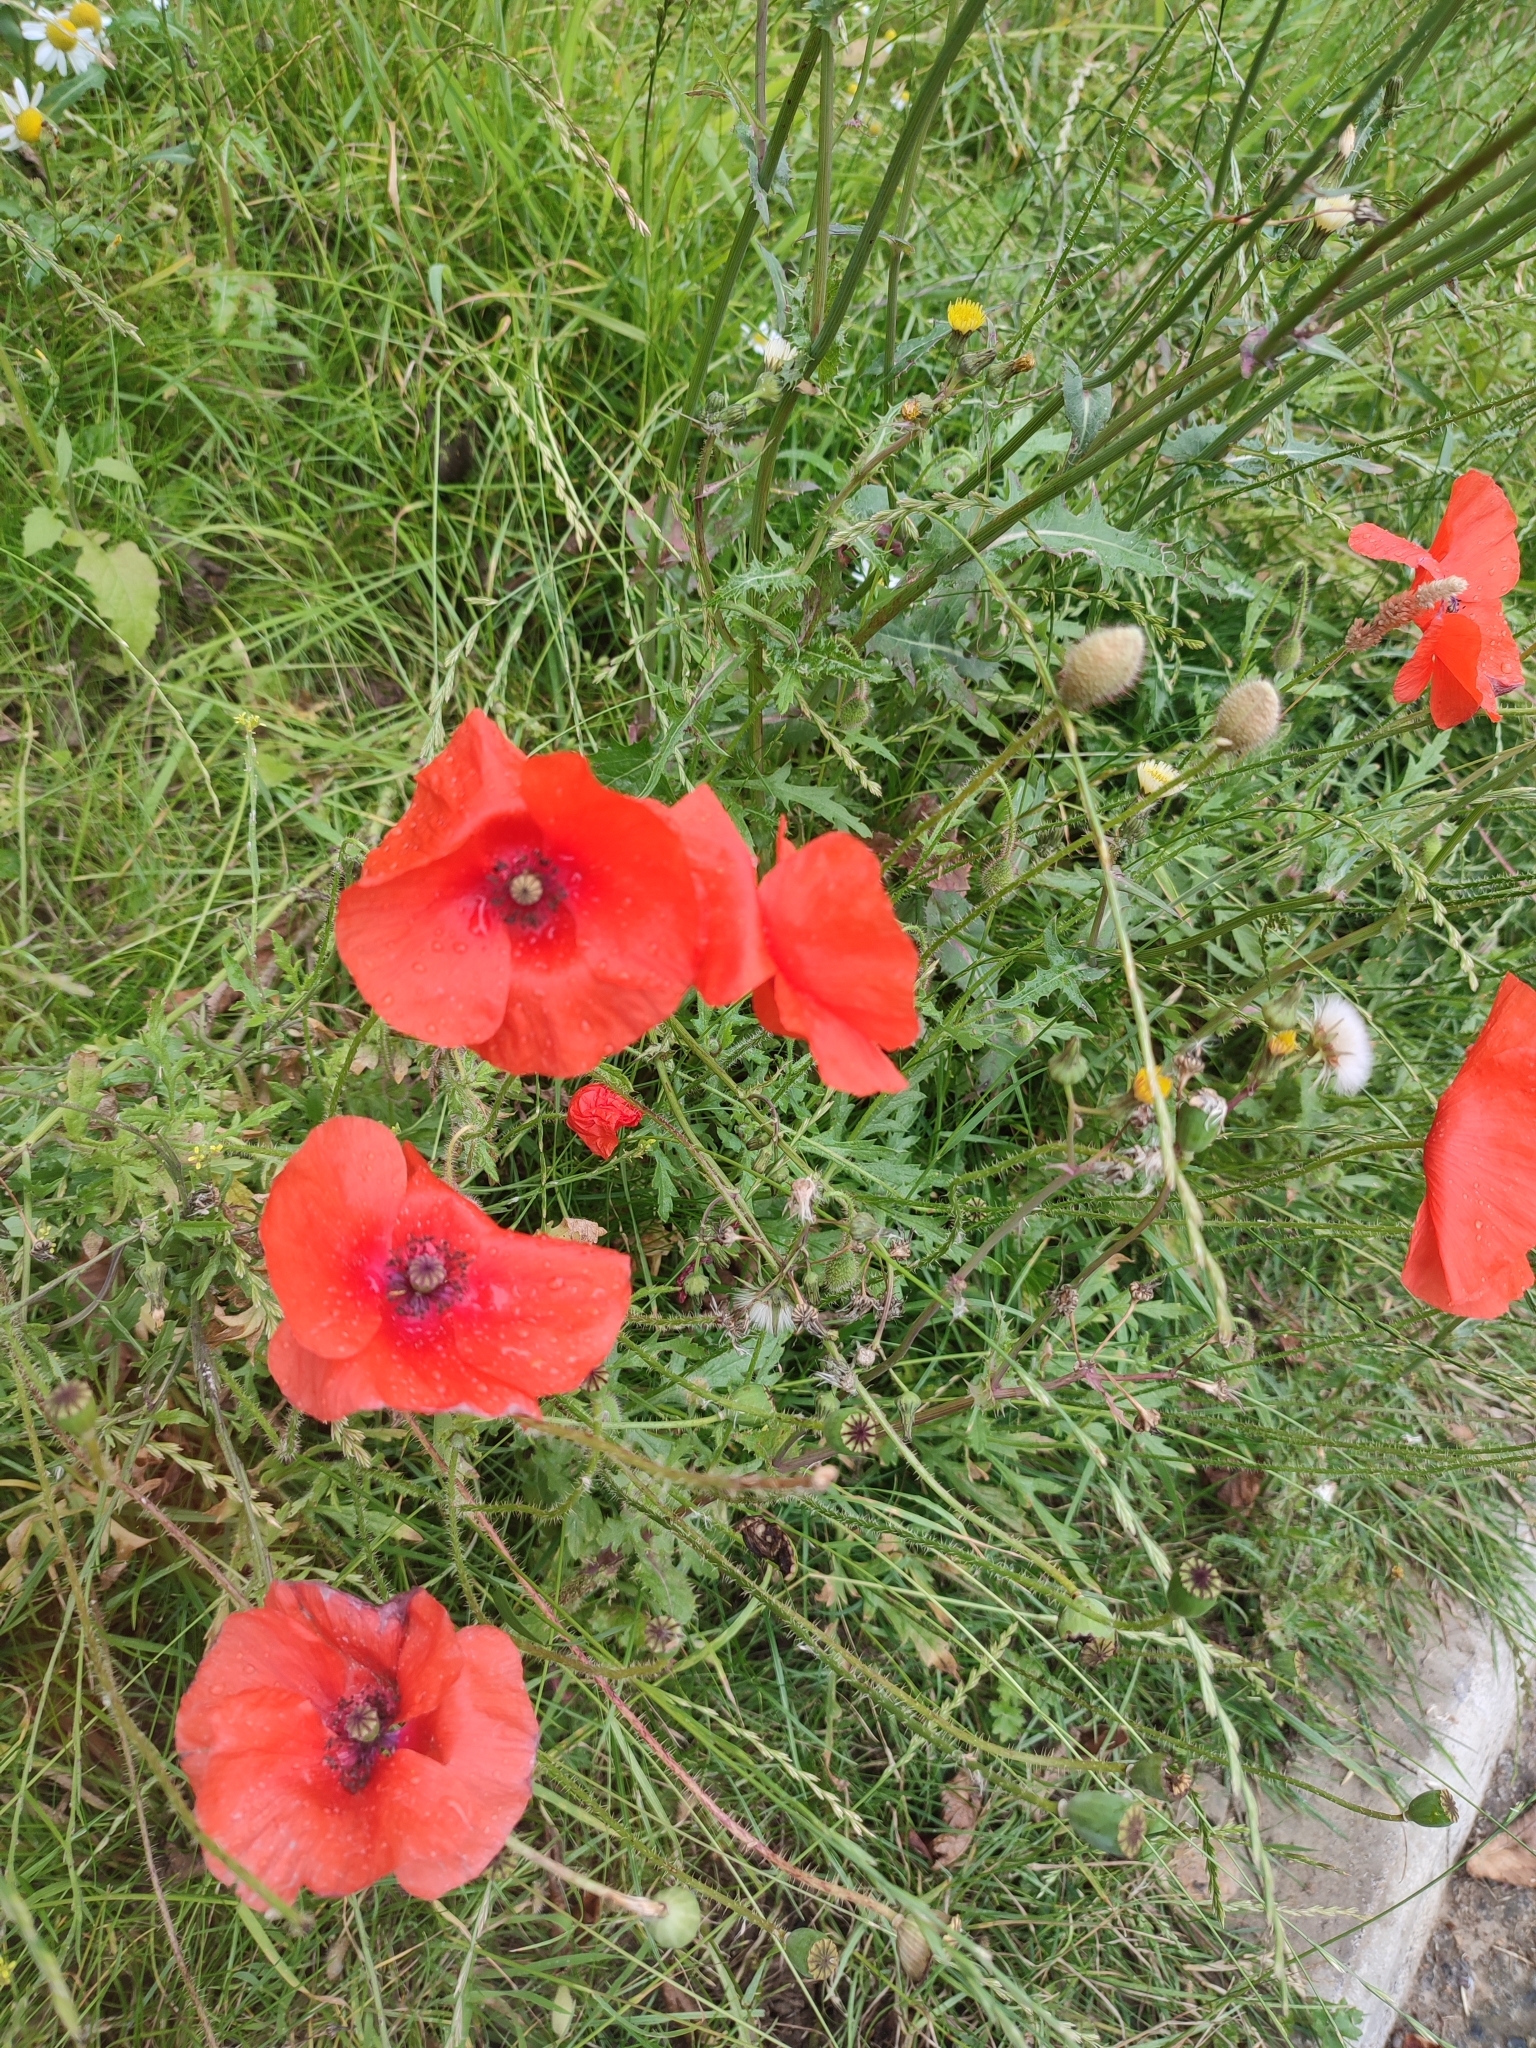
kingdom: Plantae
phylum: Tracheophyta
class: Magnoliopsida
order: Ranunculales
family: Papaveraceae
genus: Papaver
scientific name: Papaver rhoeas
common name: Corn poppy
